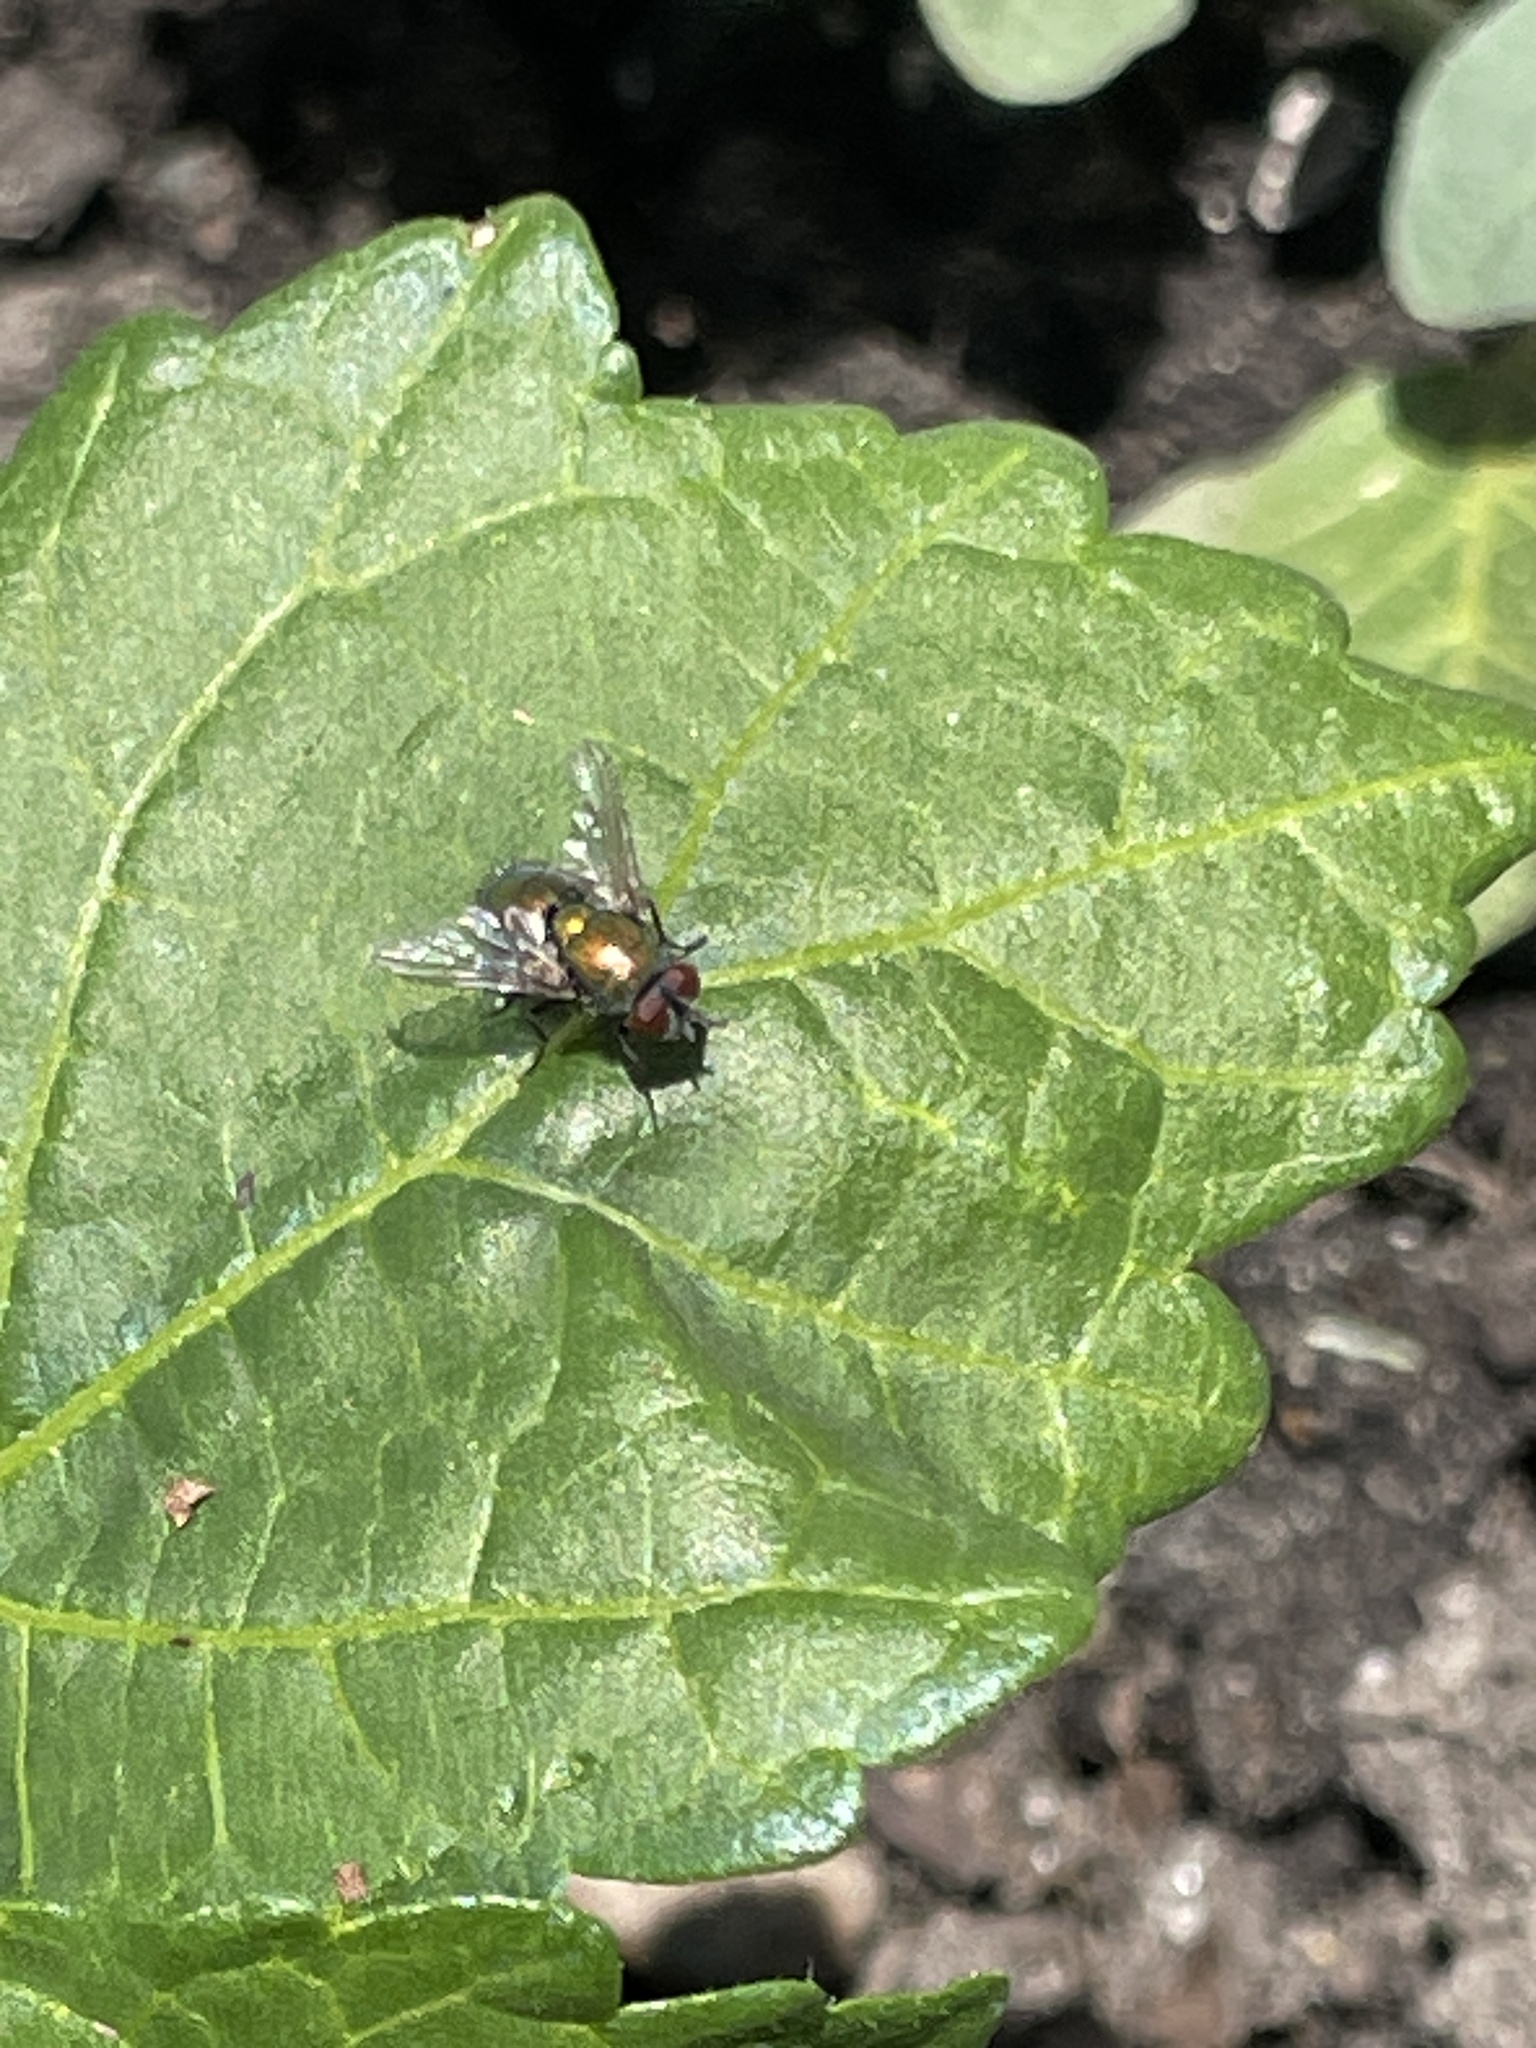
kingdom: Animalia
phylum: Arthropoda
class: Insecta
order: Diptera
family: Calliphoridae
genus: Lucilia
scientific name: Lucilia
